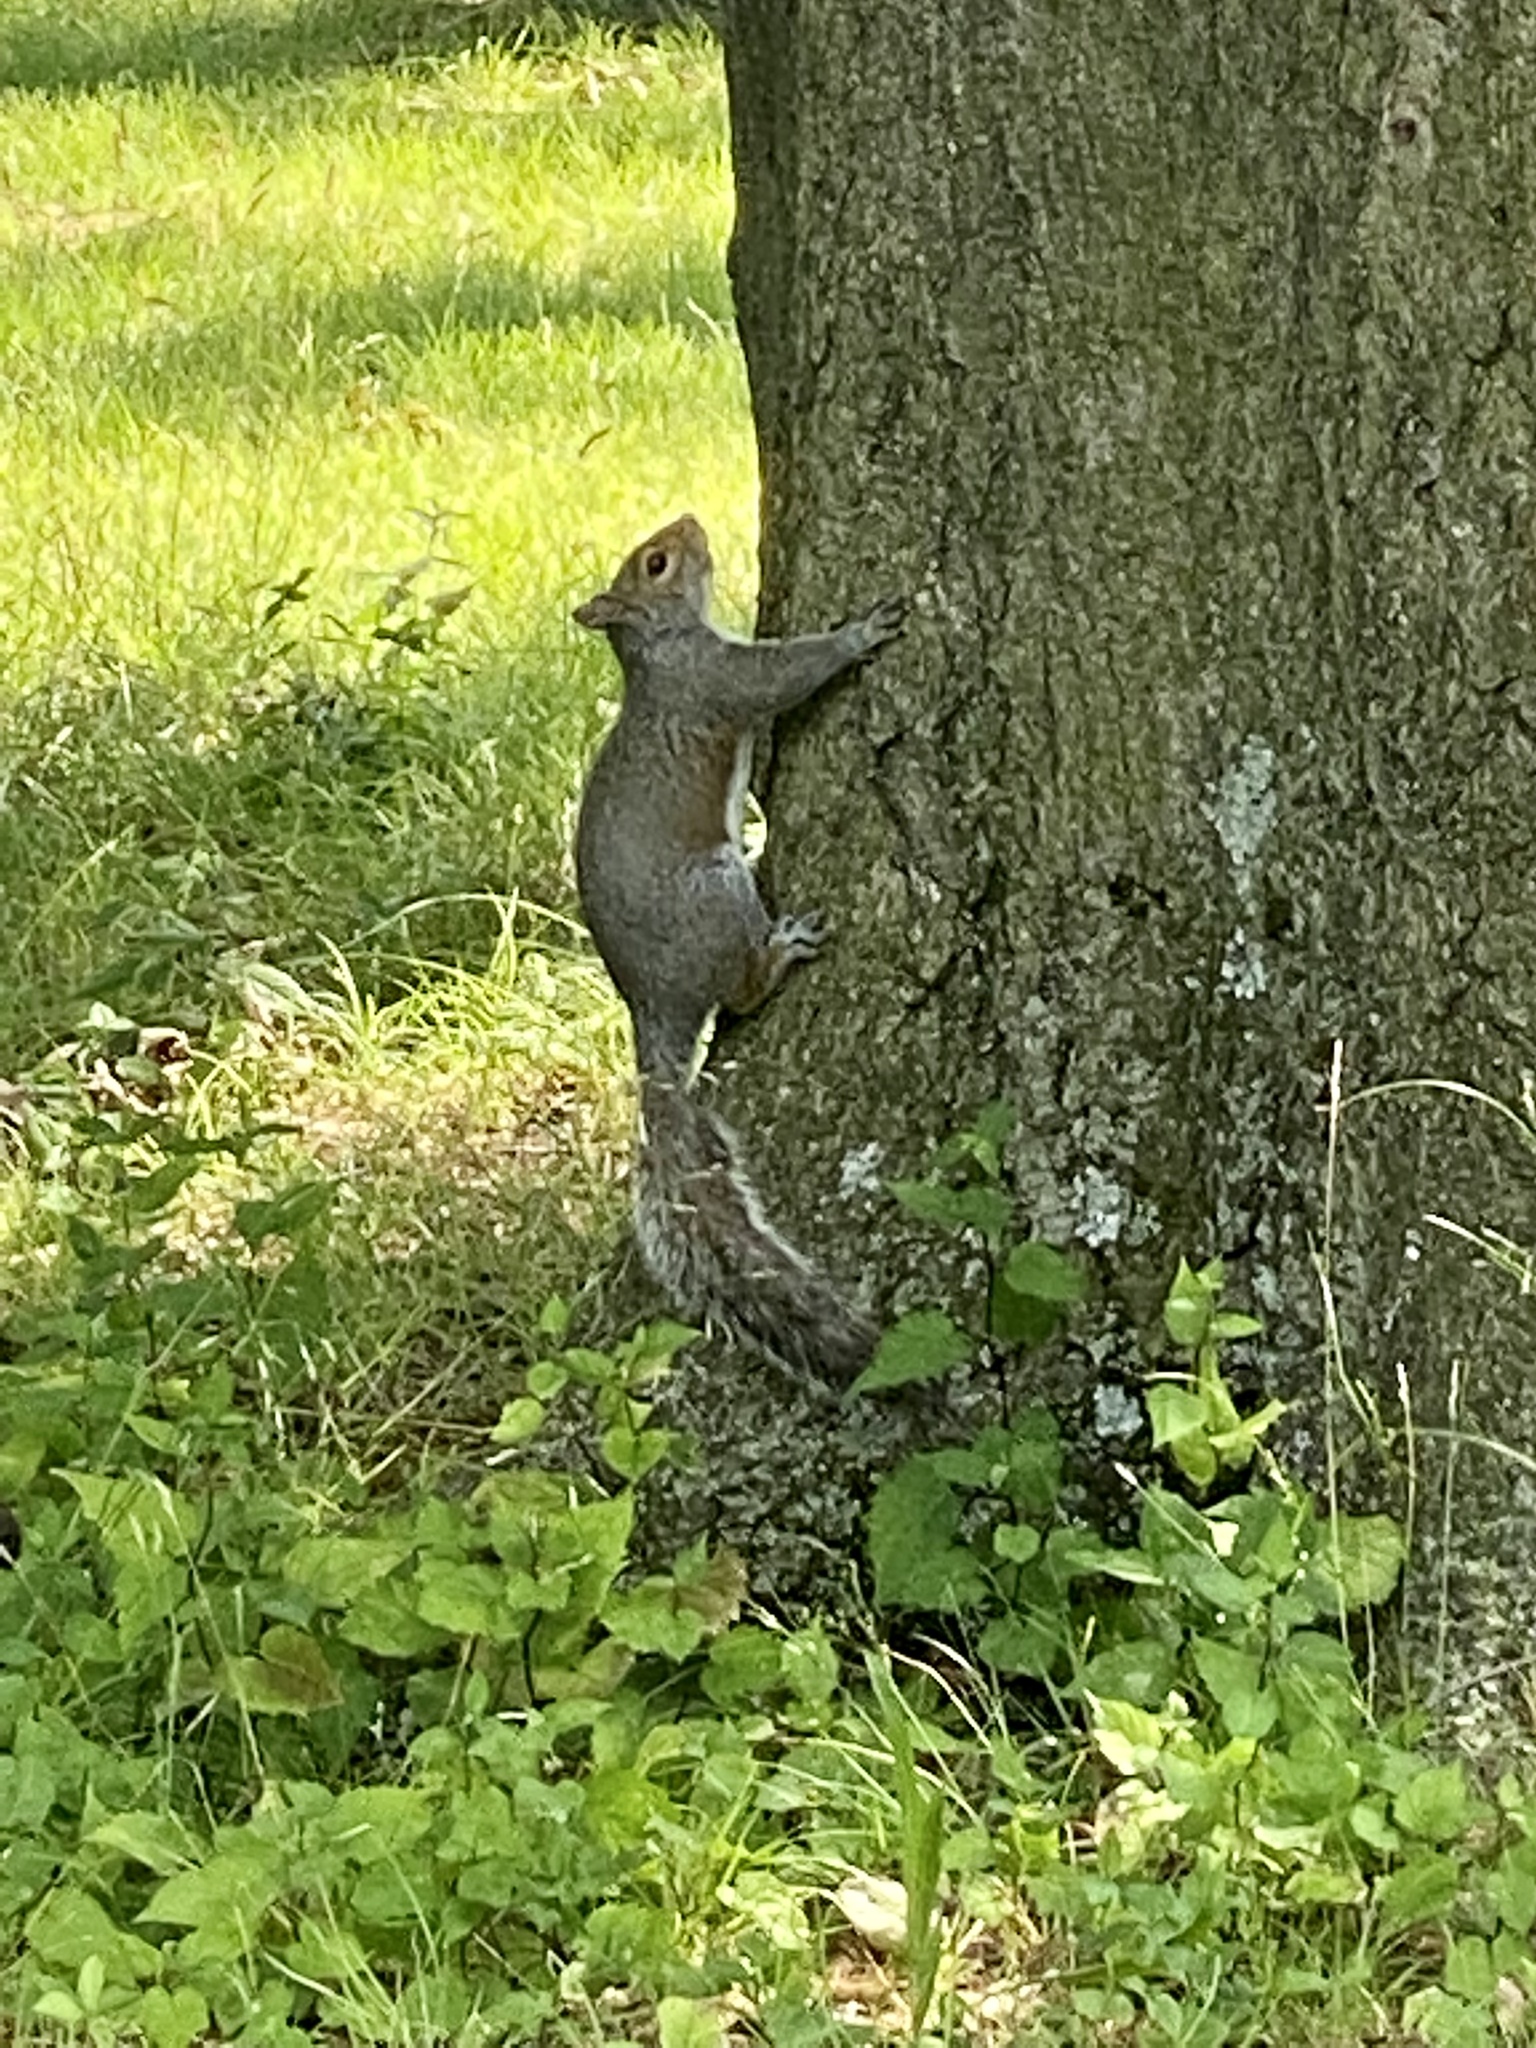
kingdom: Animalia
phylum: Chordata
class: Mammalia
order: Rodentia
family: Sciuridae
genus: Sciurus
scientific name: Sciurus carolinensis
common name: Eastern gray squirrel
